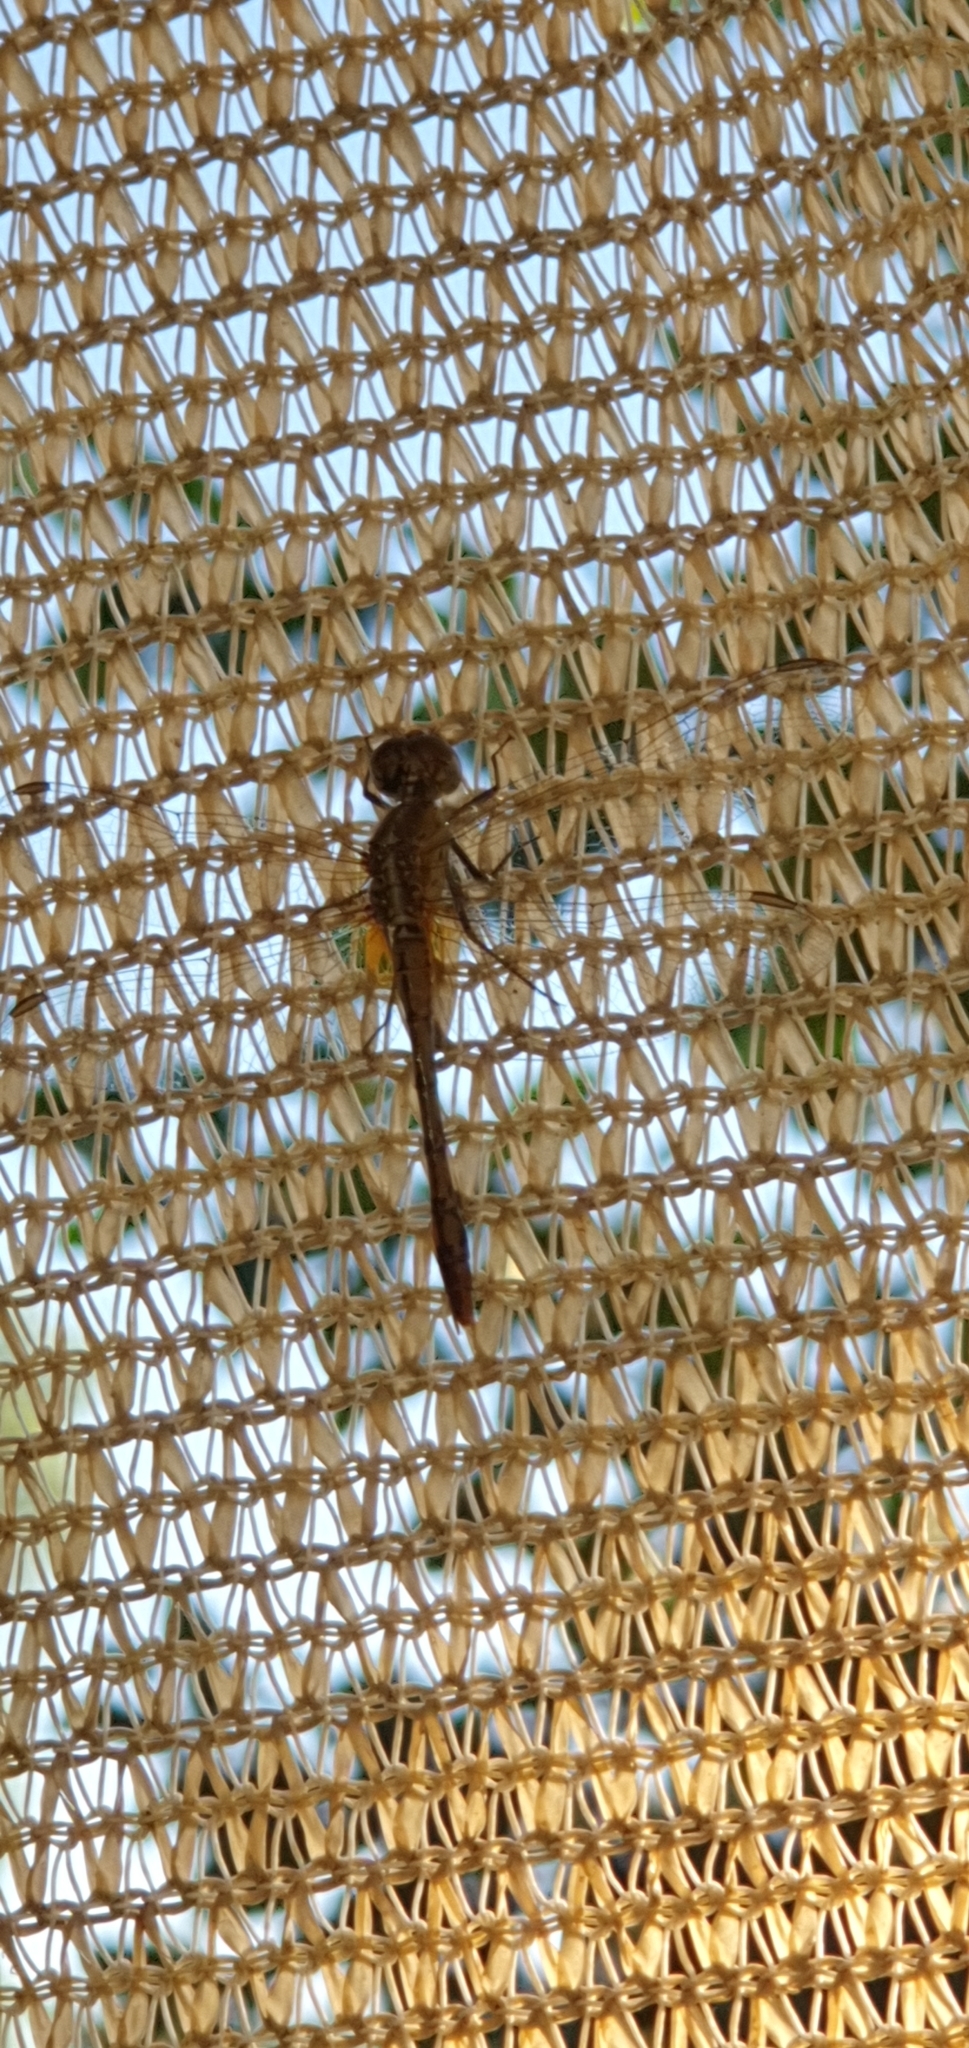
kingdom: Animalia
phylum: Arthropoda
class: Insecta
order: Odonata
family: Libellulidae
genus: Diplacodes
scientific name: Diplacodes bipunctata
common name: Red percher dragonfly
